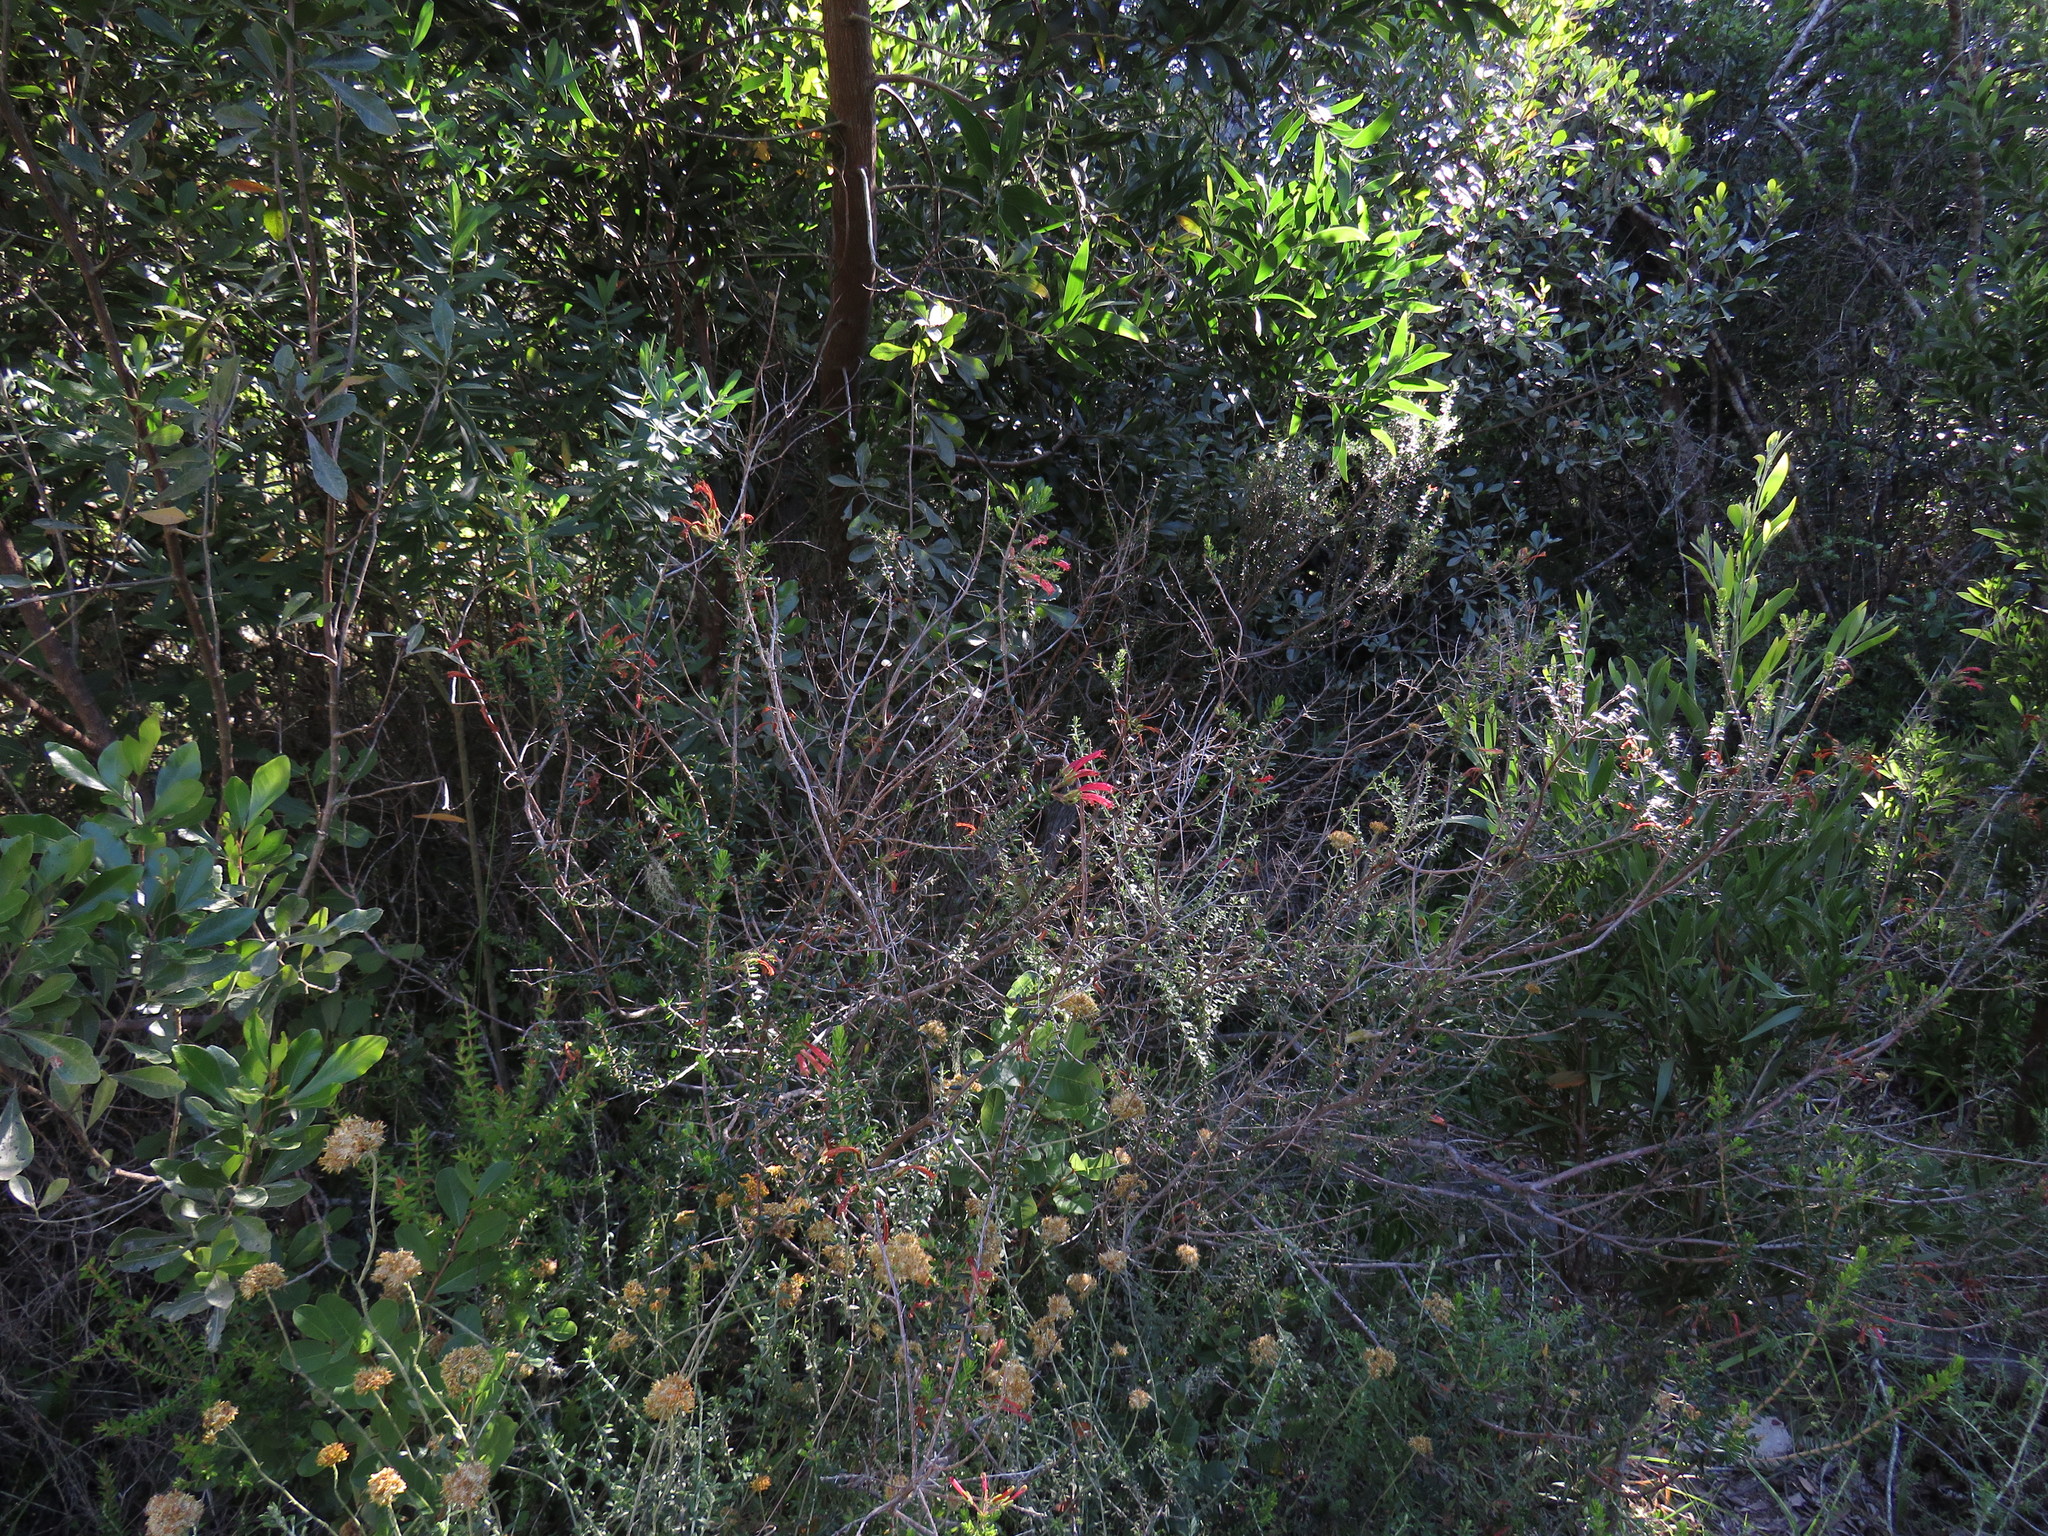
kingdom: Plantae
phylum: Tracheophyta
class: Magnoliopsida
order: Ericales
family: Ericaceae
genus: Erica
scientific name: Erica glandulosa
